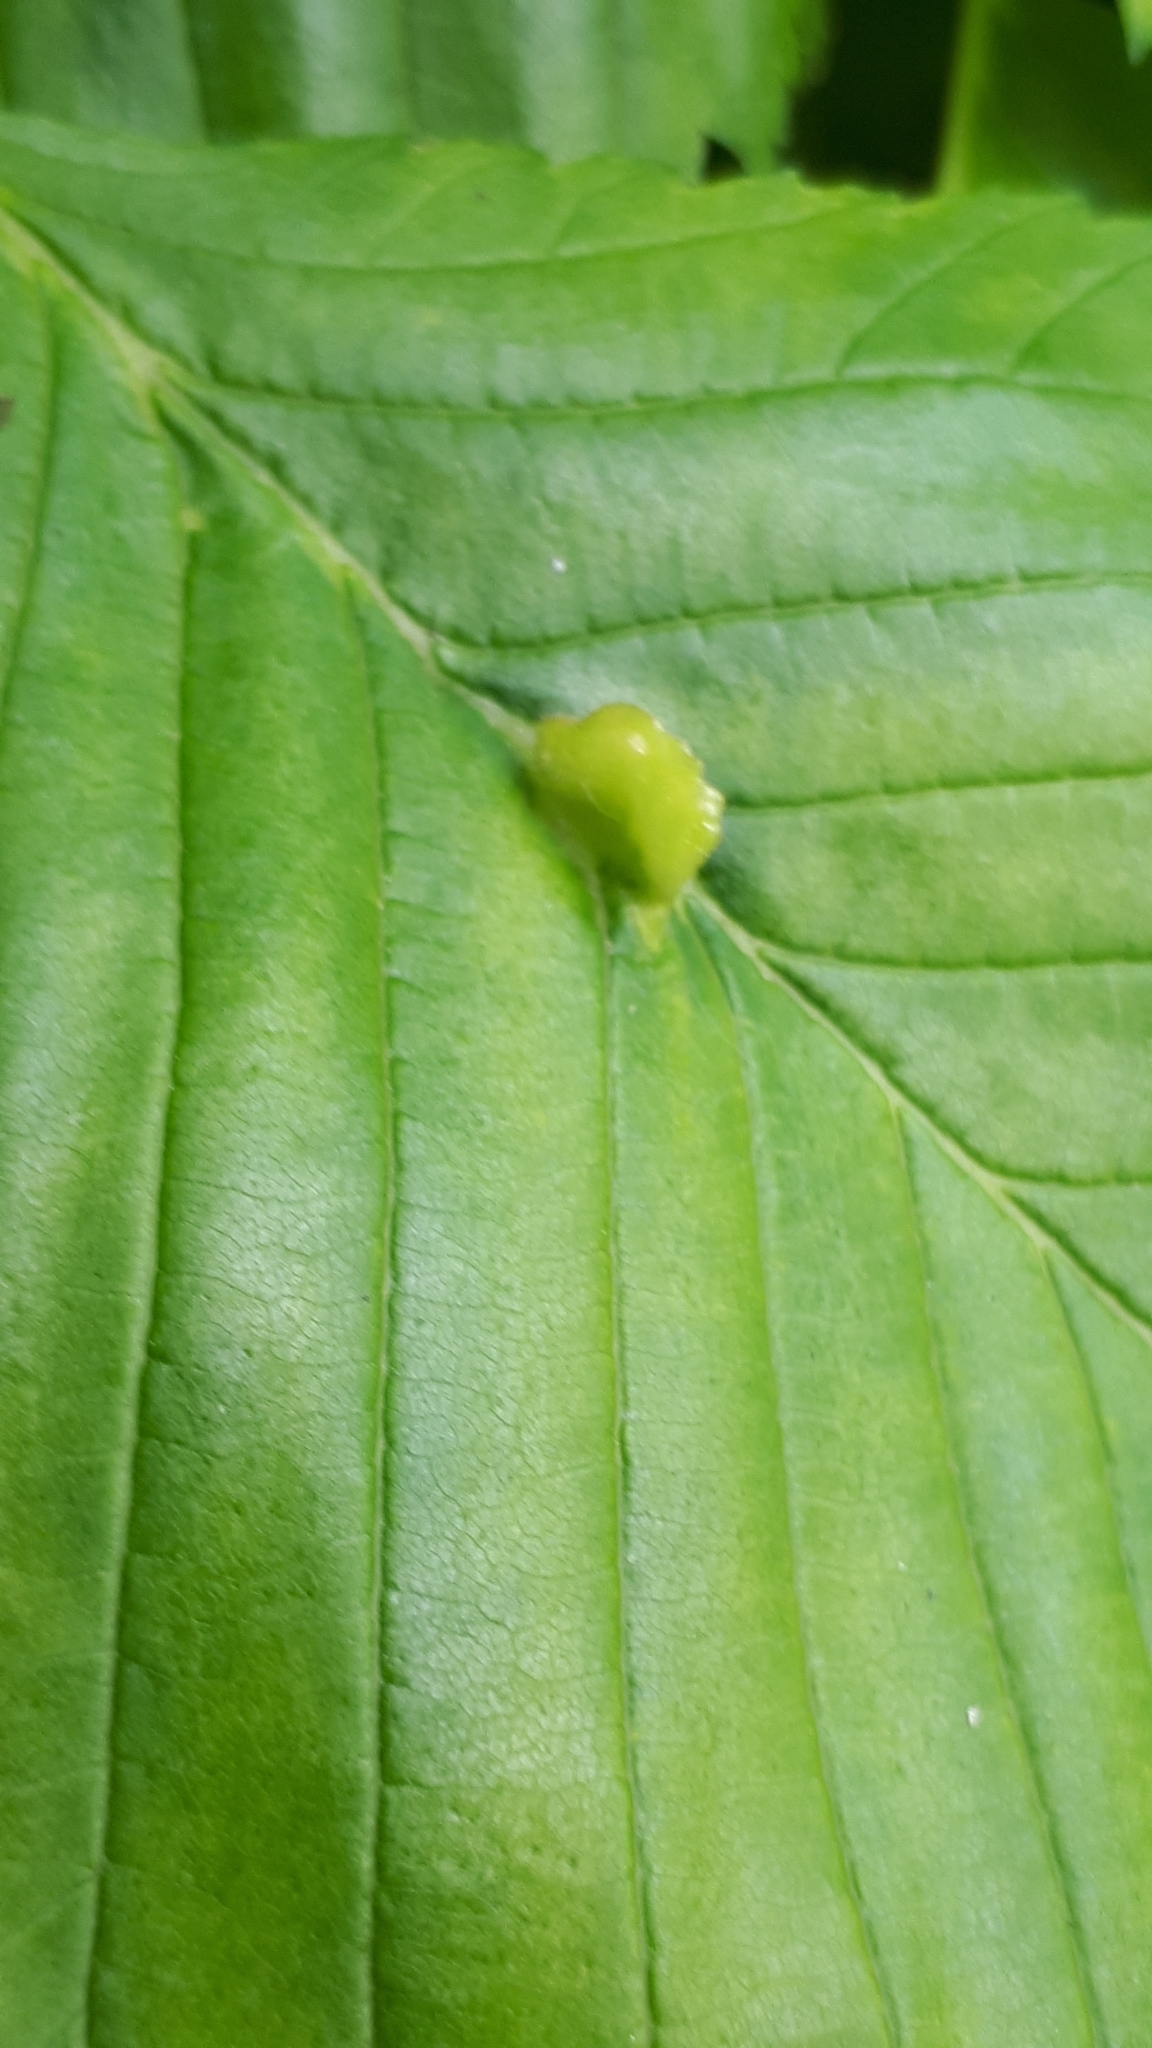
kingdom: Animalia
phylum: Arthropoda
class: Insecta
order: Hemiptera
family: Aphididae
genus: Colopha
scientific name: Colopha compressa
